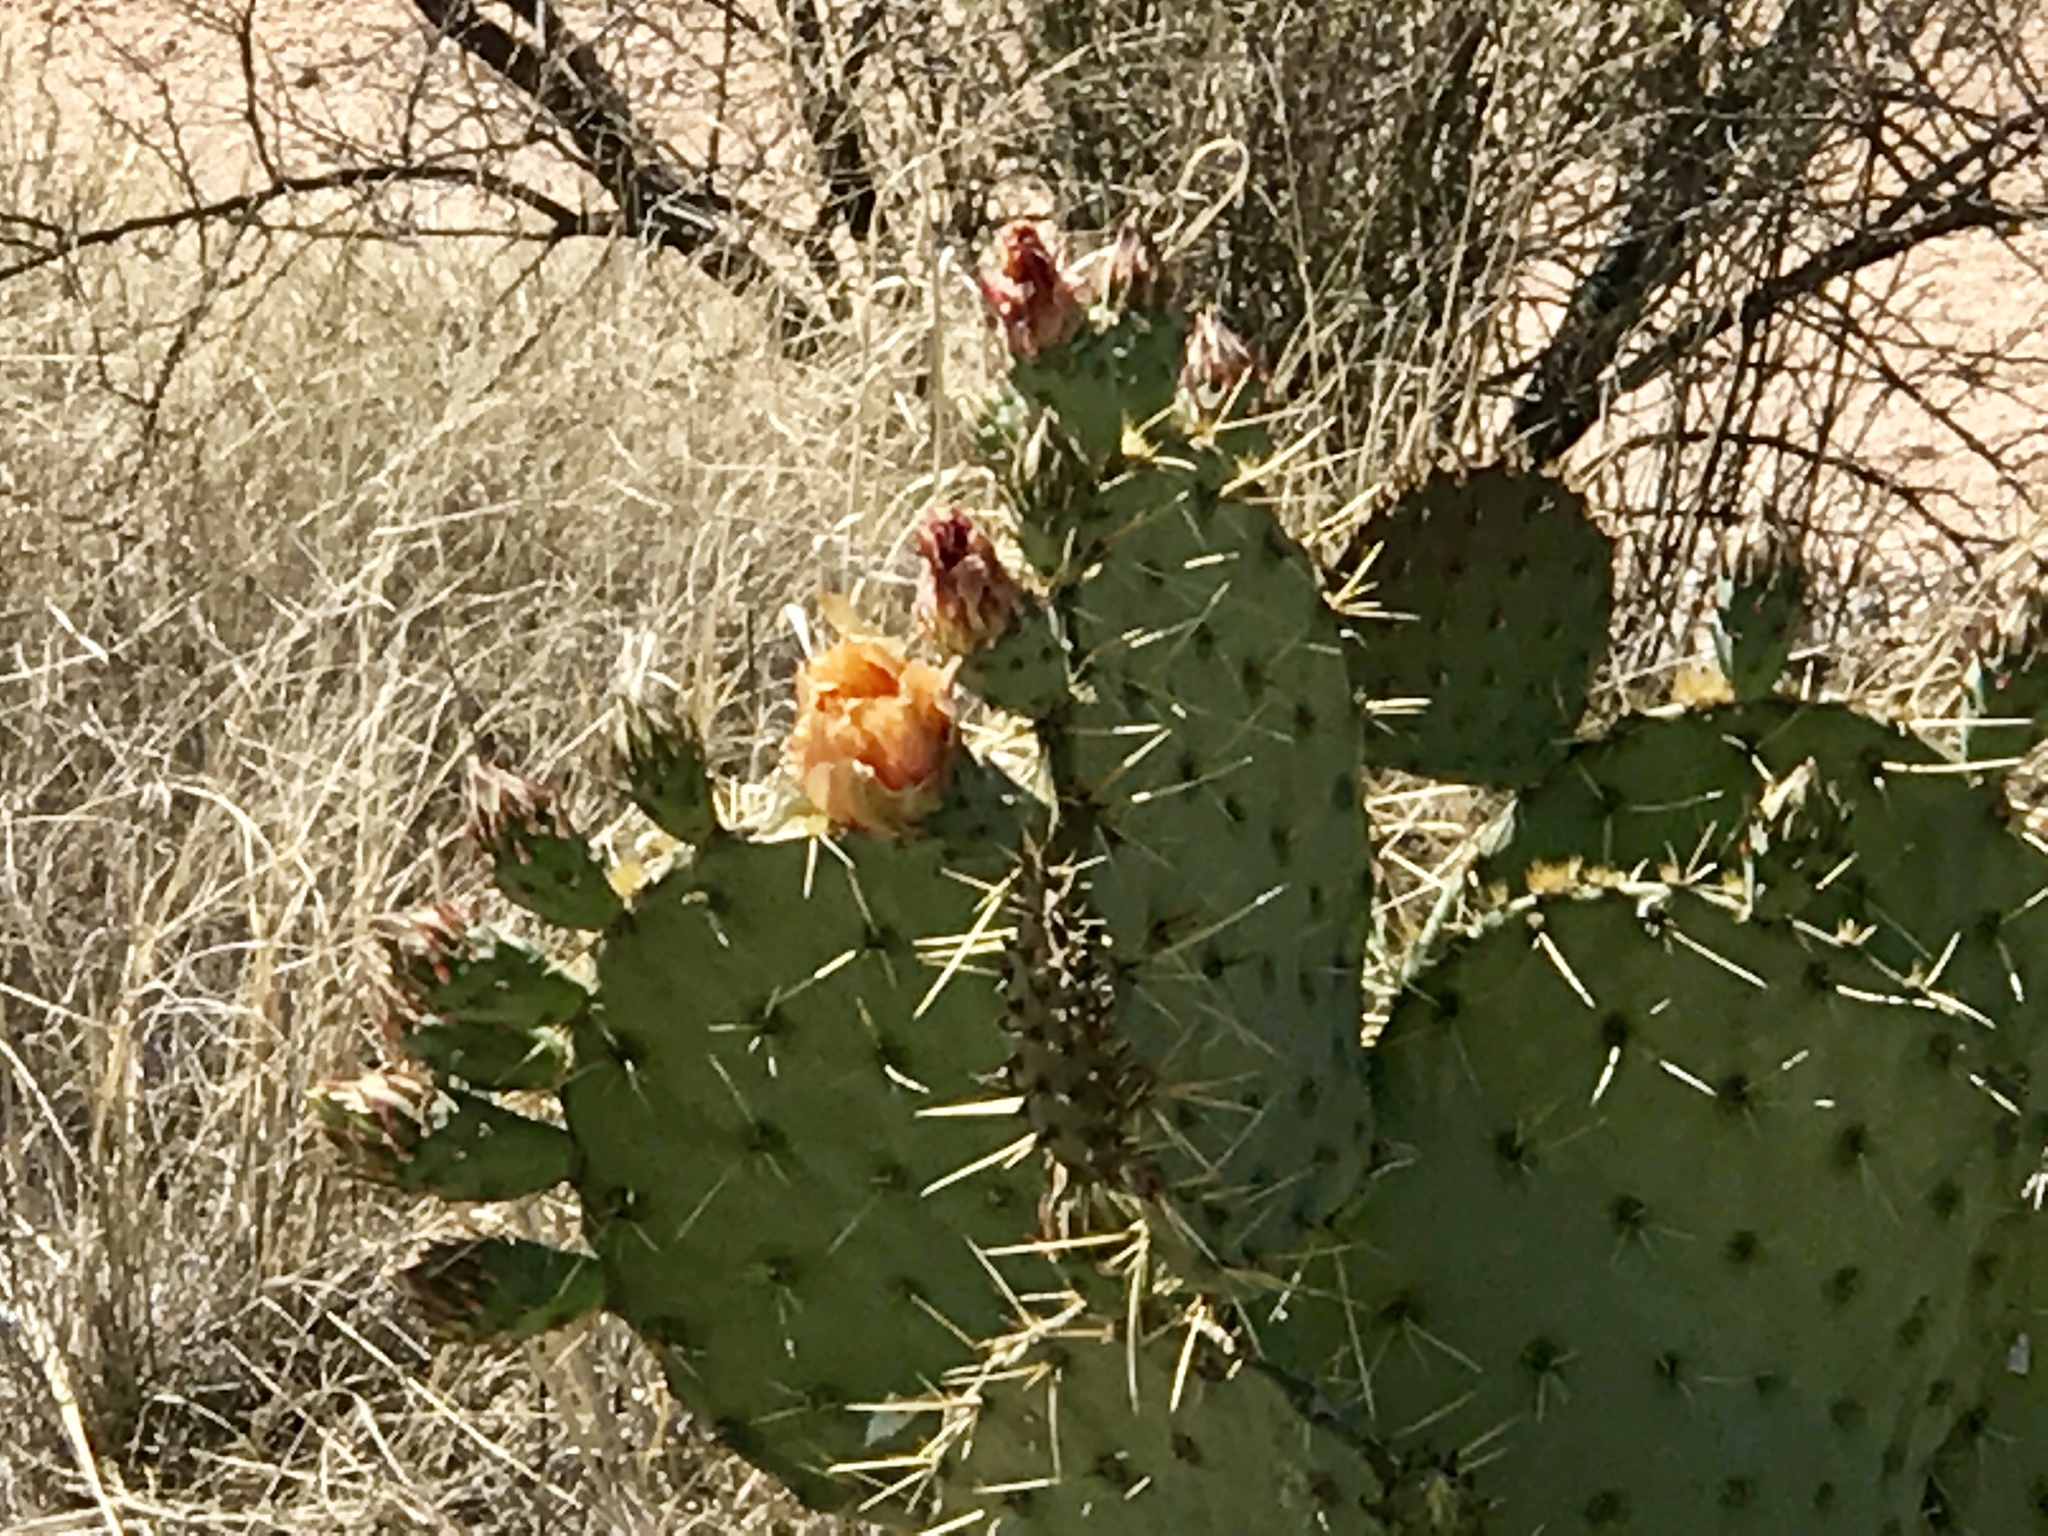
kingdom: Plantae
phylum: Tracheophyta
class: Magnoliopsida
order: Caryophyllales
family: Cactaceae
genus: Opuntia
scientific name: Opuntia engelmannii
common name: Cactus-apple
